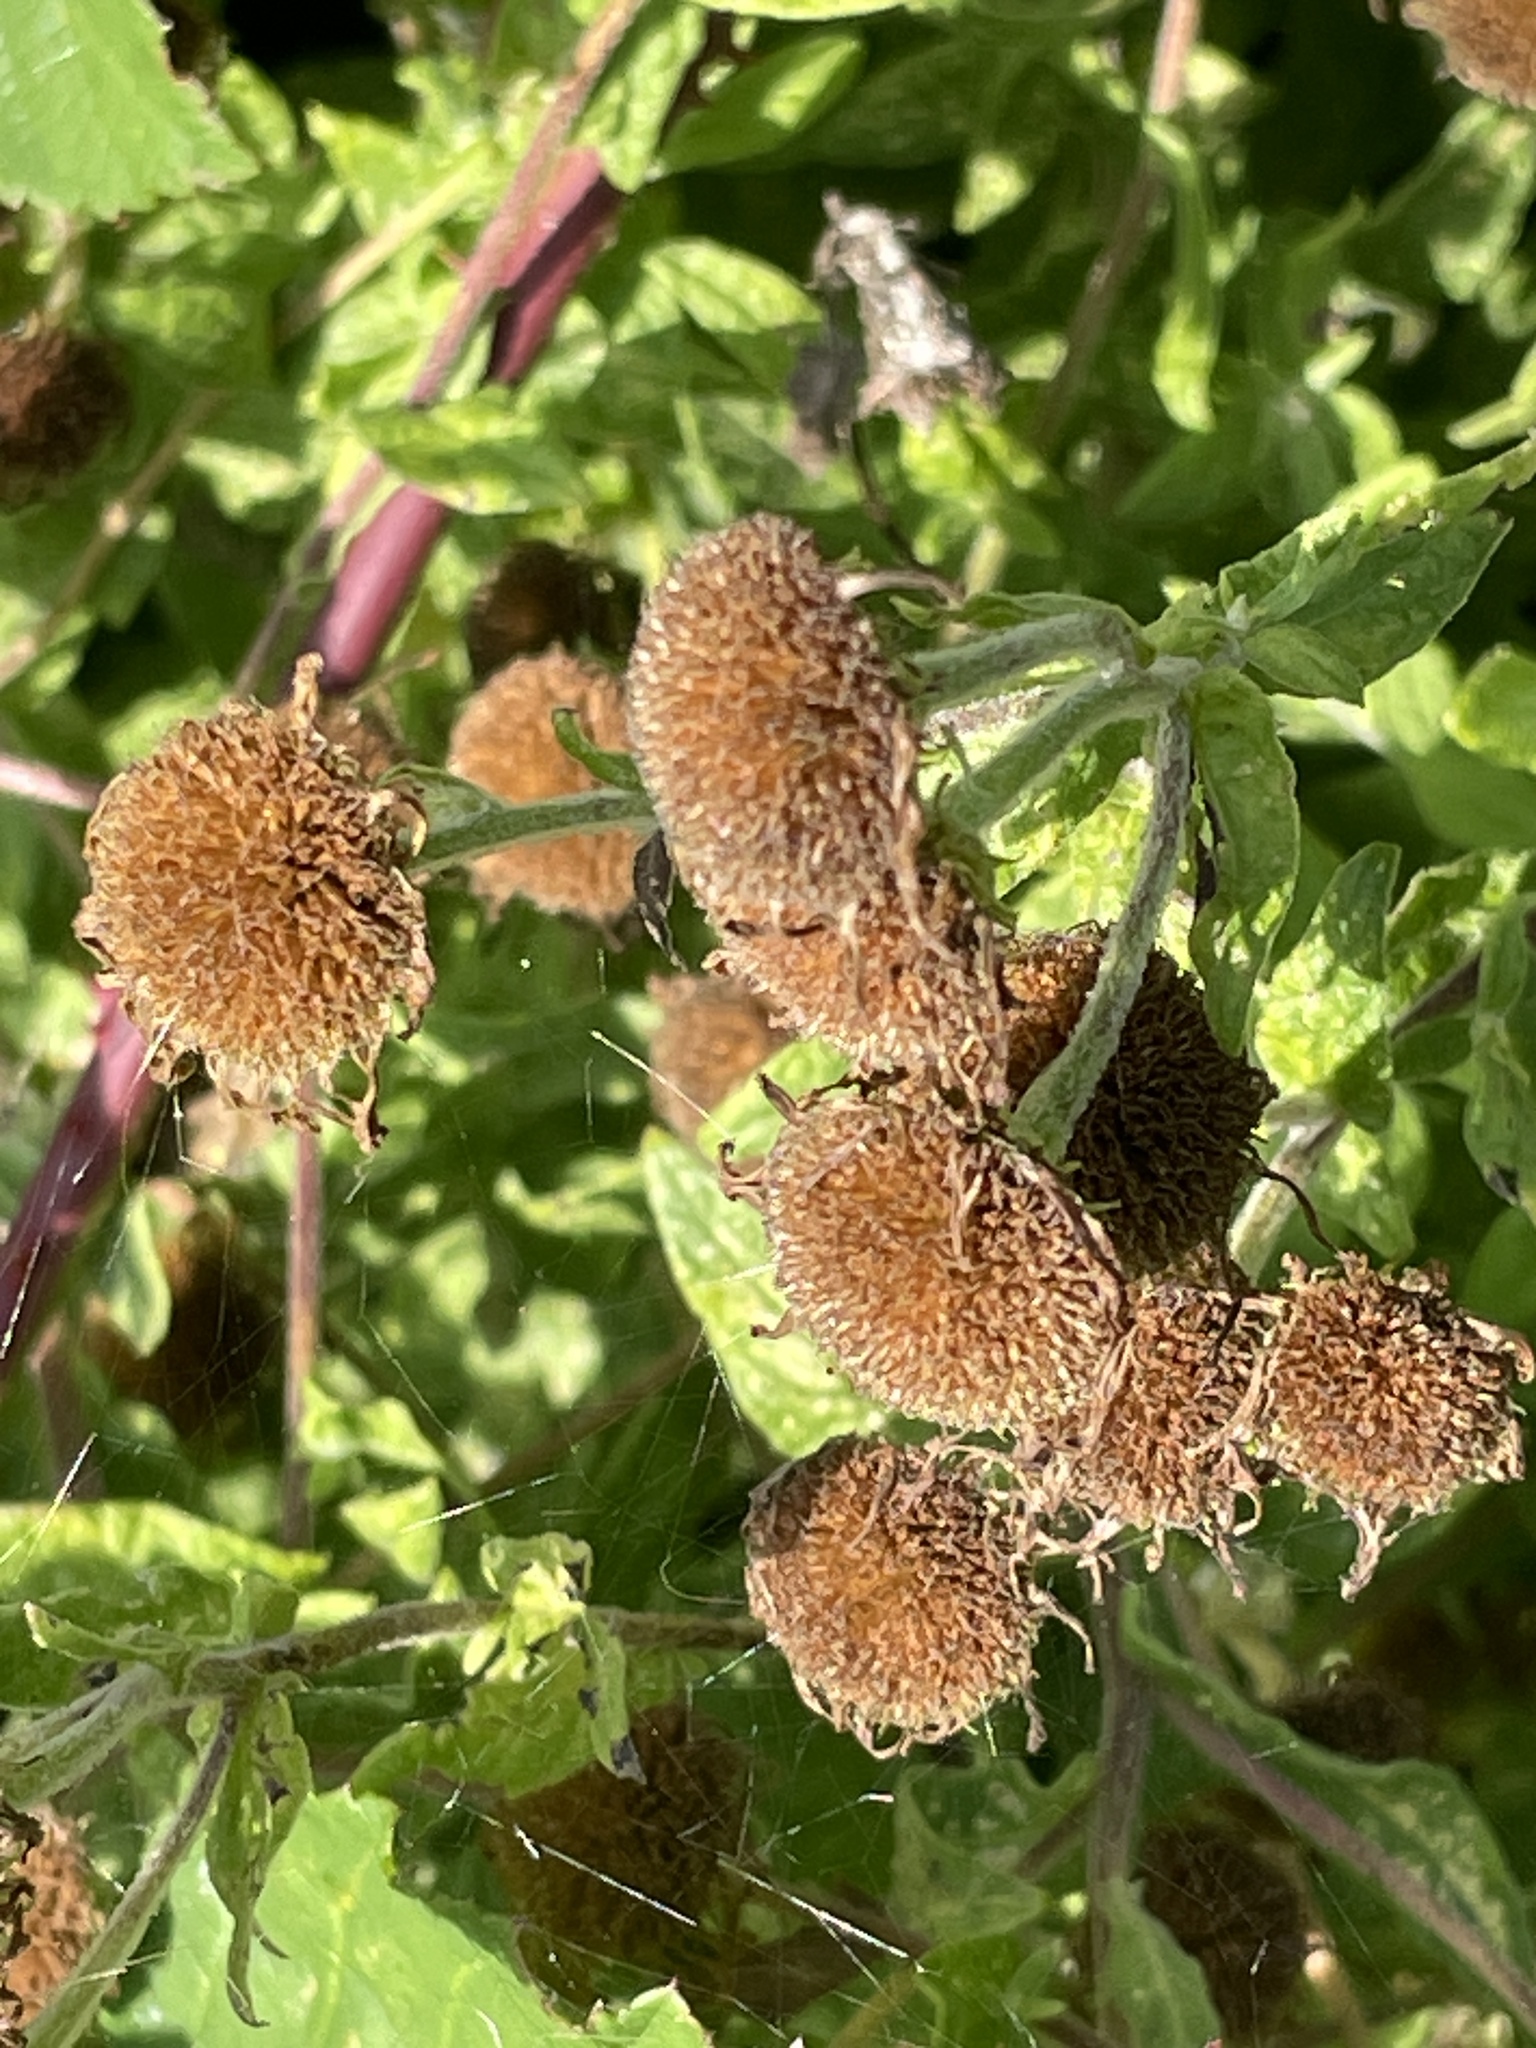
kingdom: Plantae
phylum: Tracheophyta
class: Magnoliopsida
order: Asterales
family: Asteraceae
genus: Pulicaria
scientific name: Pulicaria dysenterica
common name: Common fleabane
